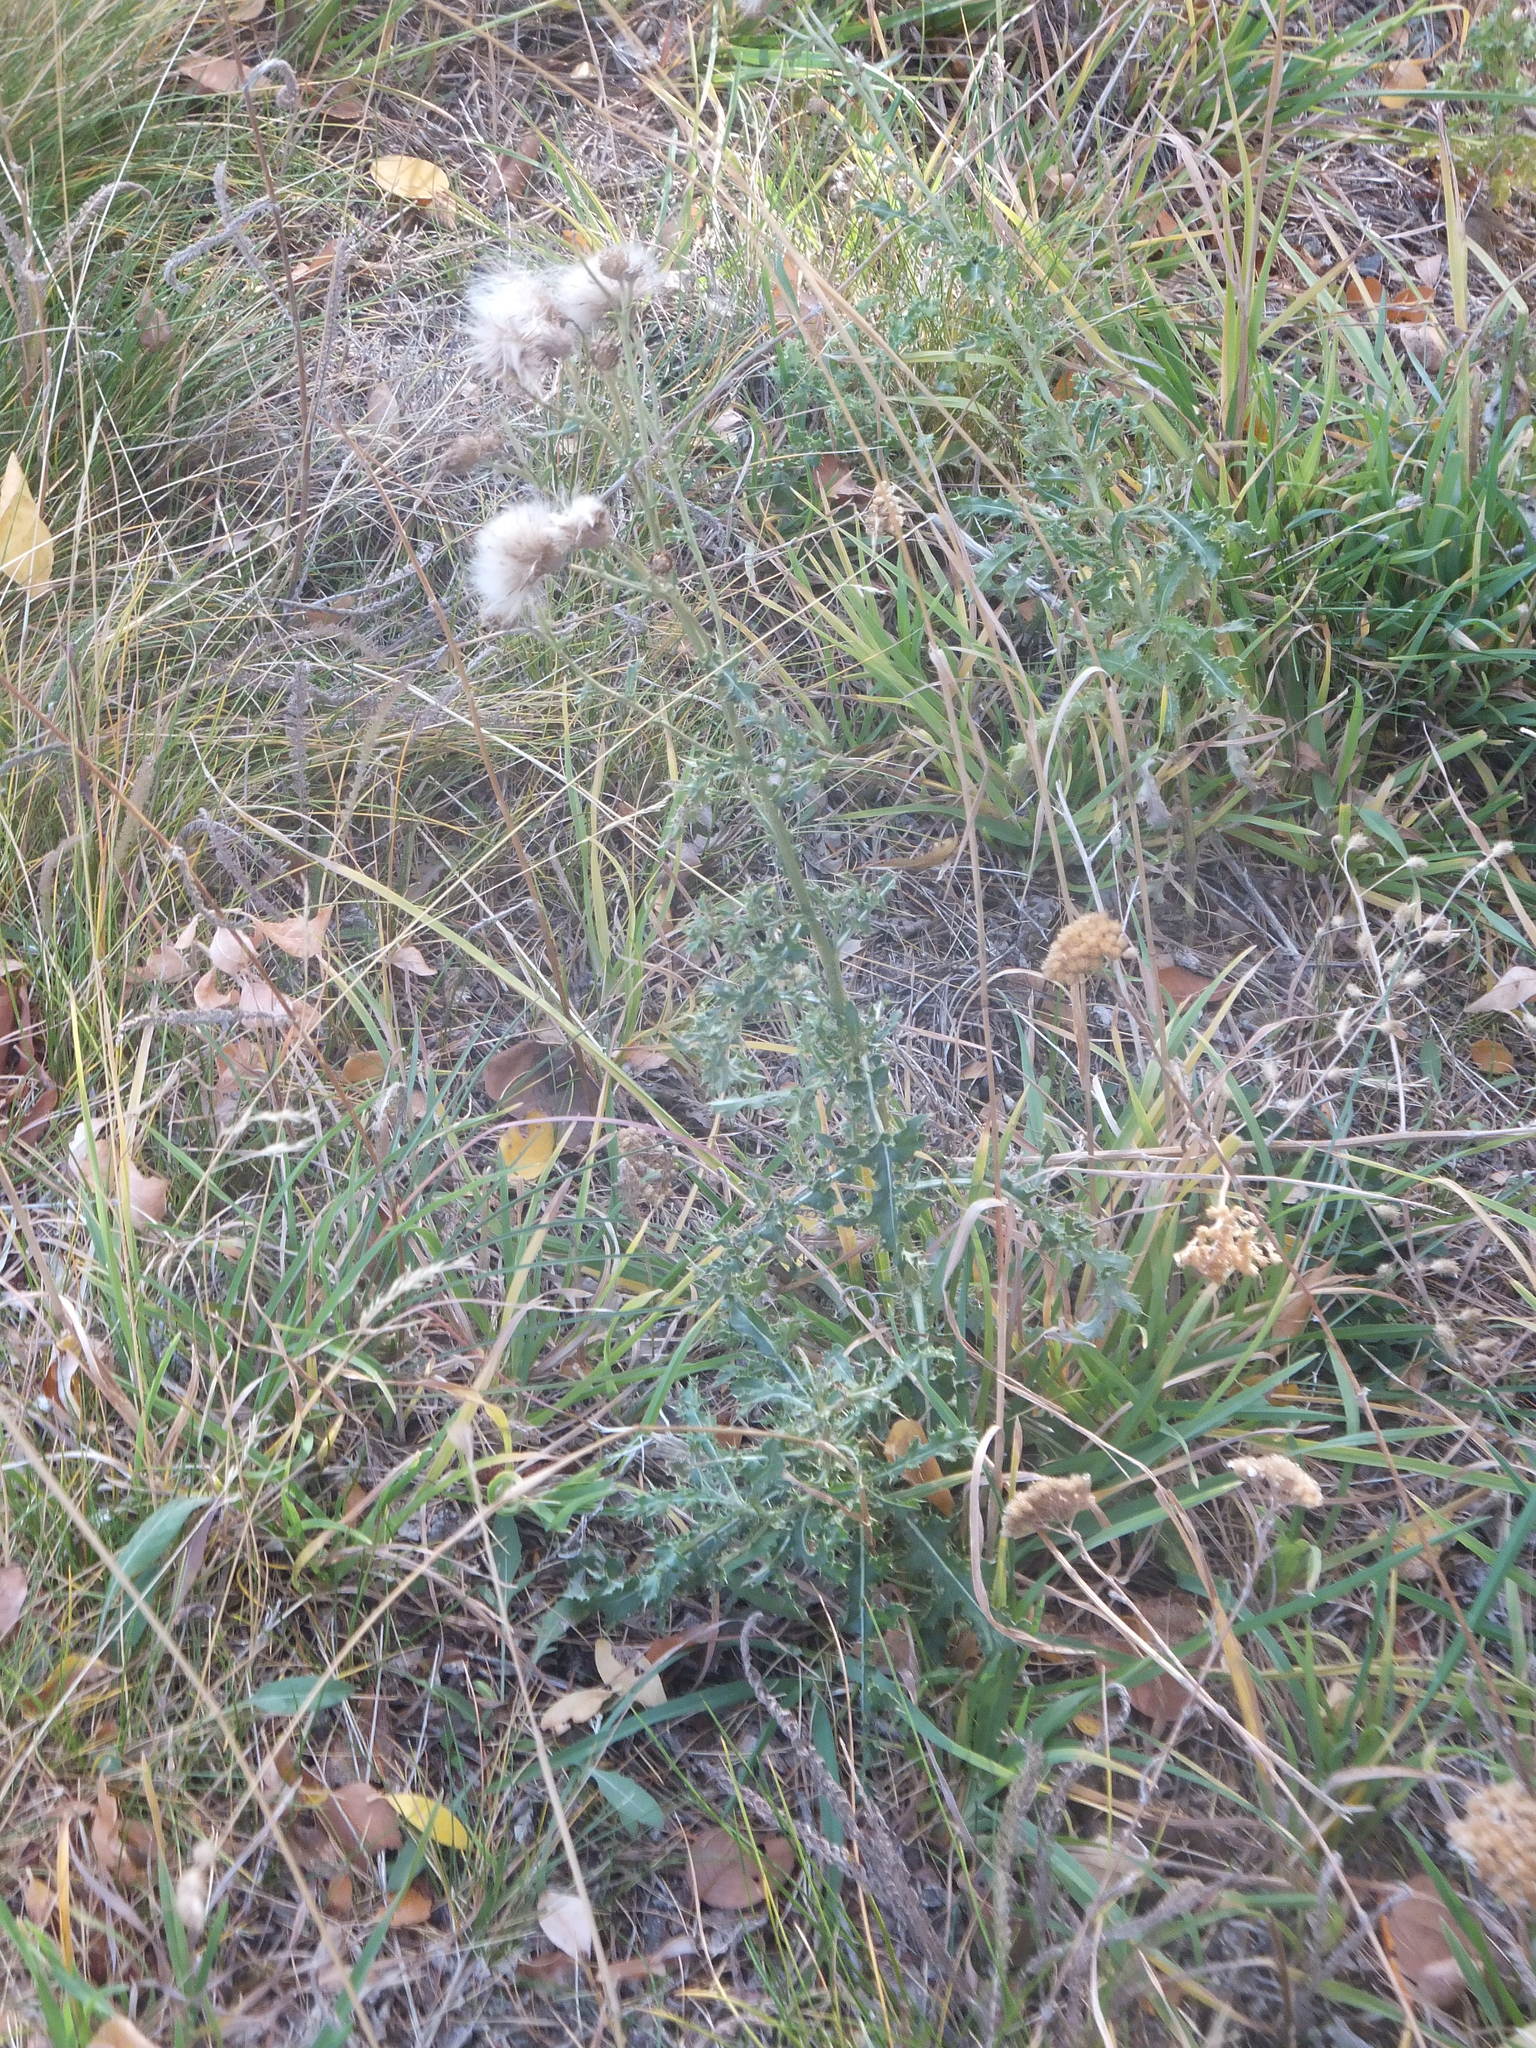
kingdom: Plantae
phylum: Tracheophyta
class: Magnoliopsida
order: Asterales
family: Asteraceae
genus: Cirsium
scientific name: Cirsium arvense
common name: Creeping thistle
